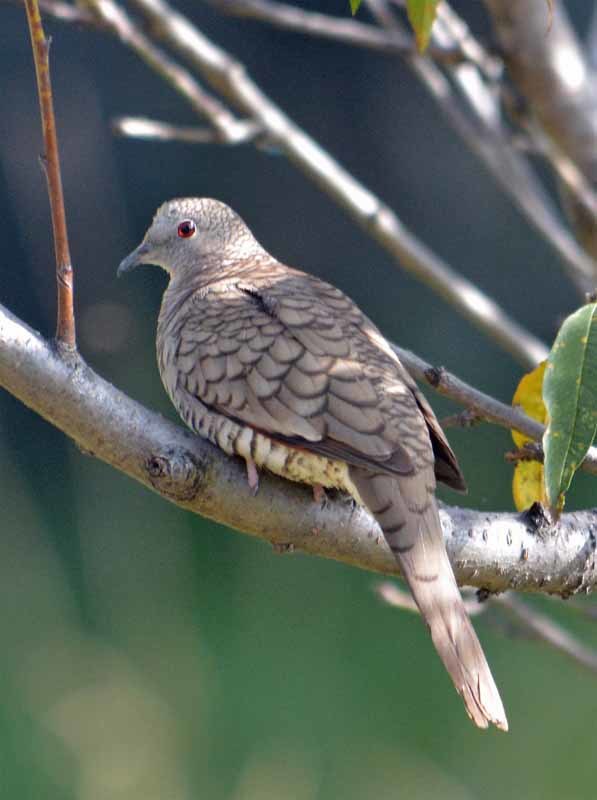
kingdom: Animalia
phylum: Chordata
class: Aves
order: Columbiformes
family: Columbidae
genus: Columbina
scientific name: Columbina inca
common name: Inca dove
